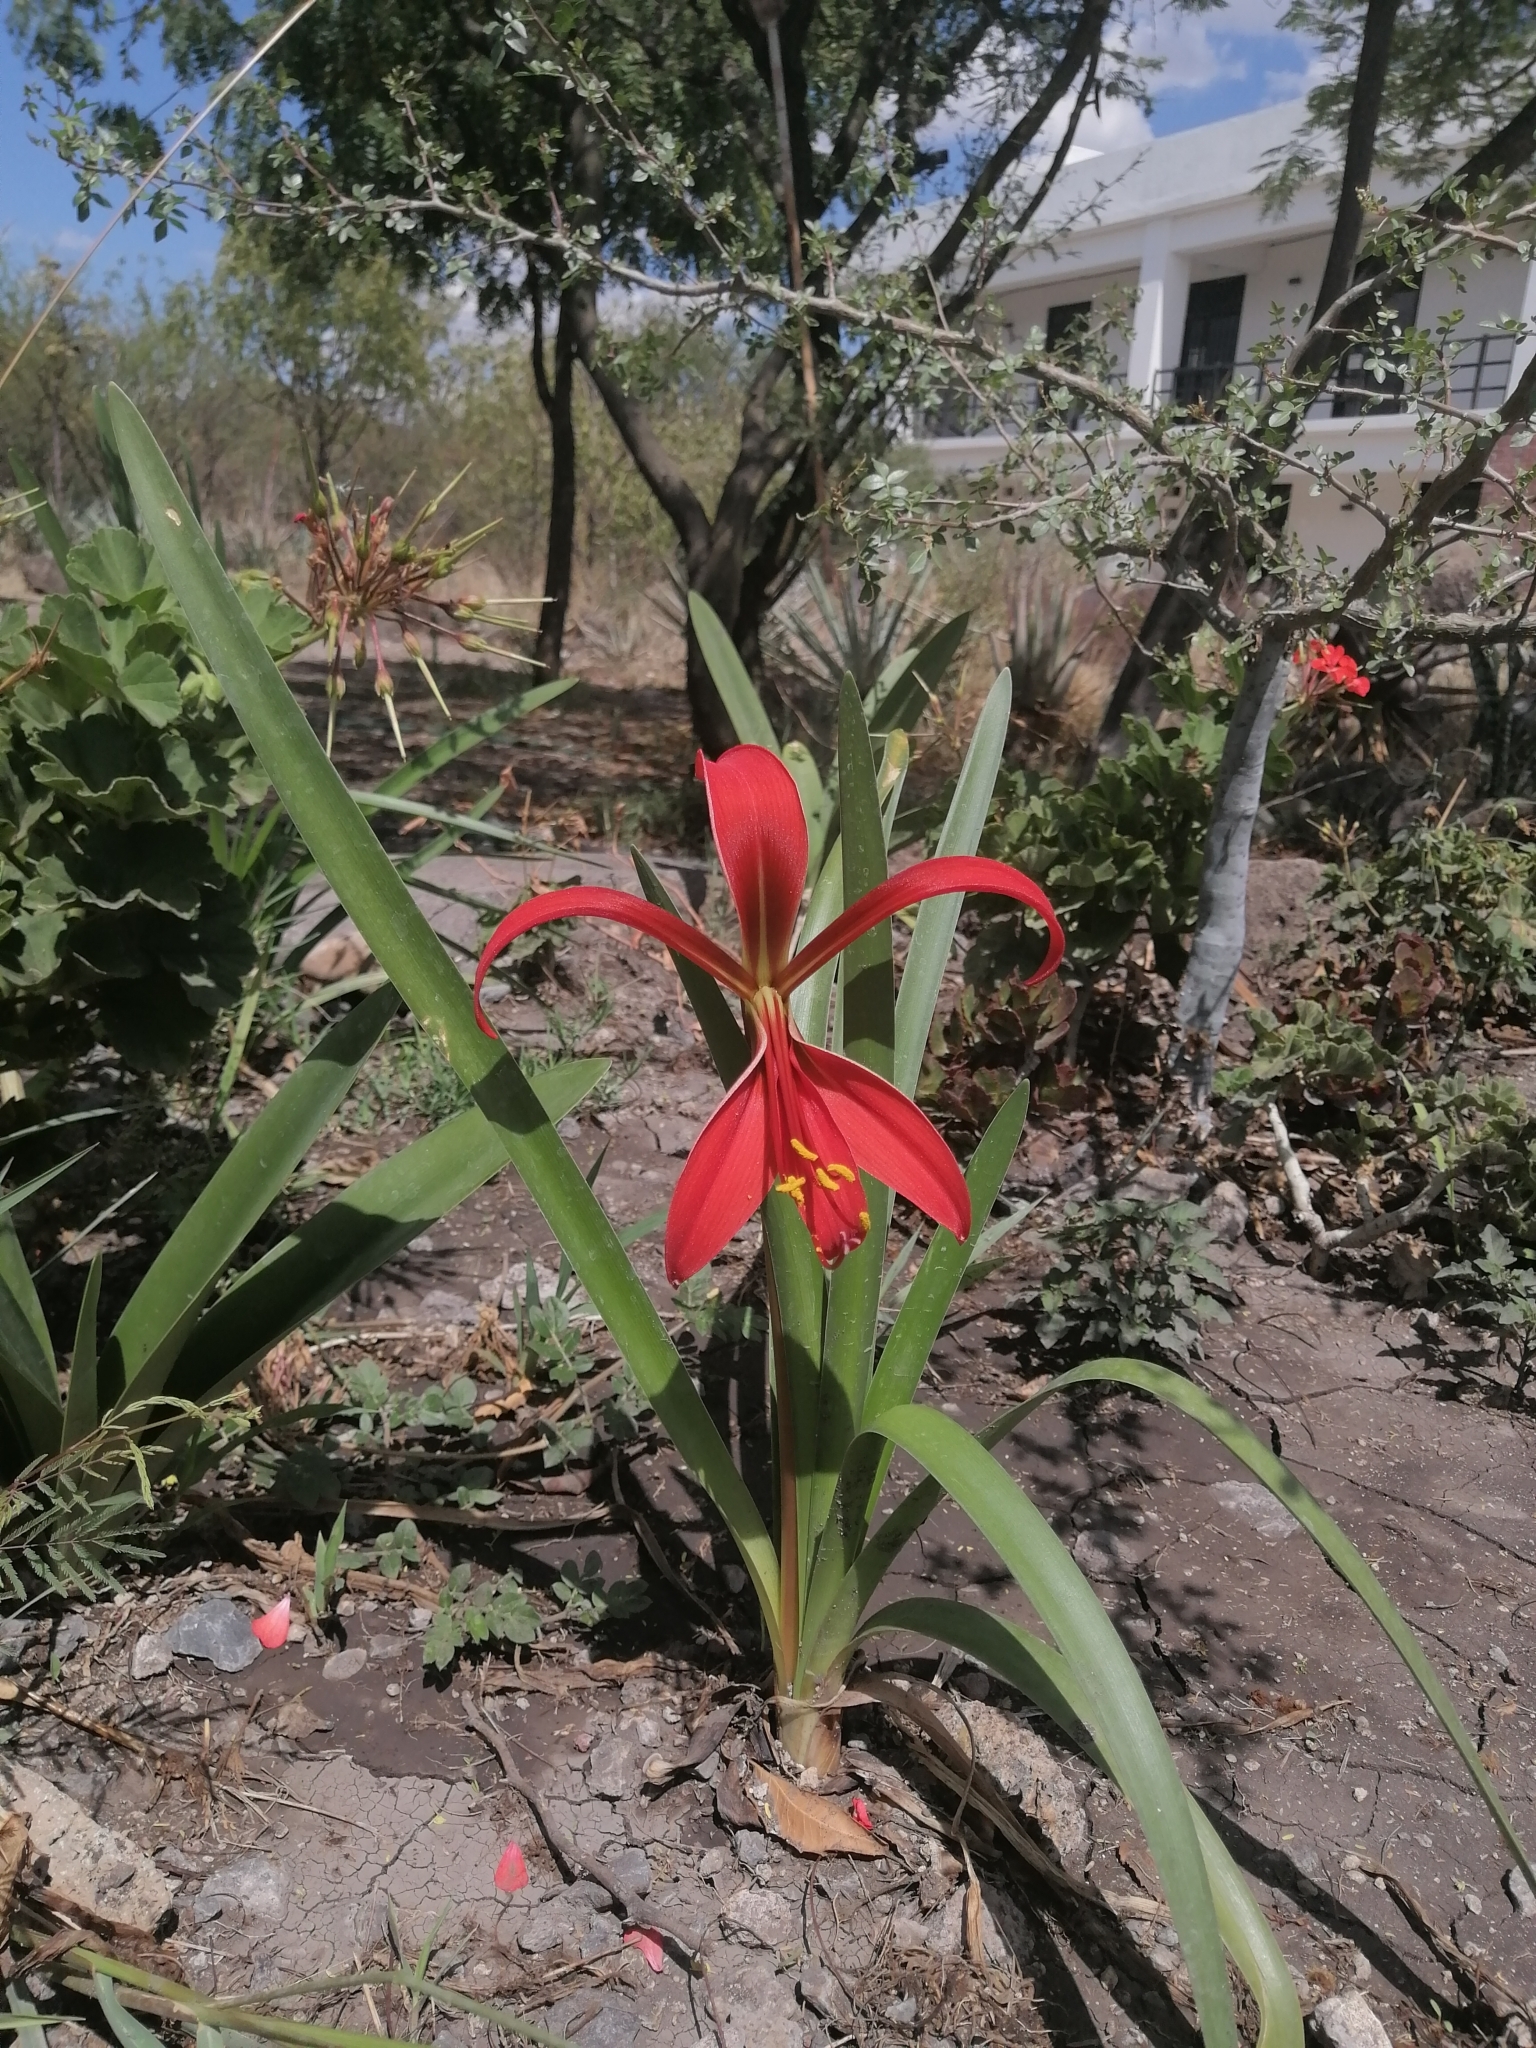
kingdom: Plantae
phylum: Tracheophyta
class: Liliopsida
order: Asparagales
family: Amaryllidaceae
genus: Sprekelia
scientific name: Sprekelia formosissima
